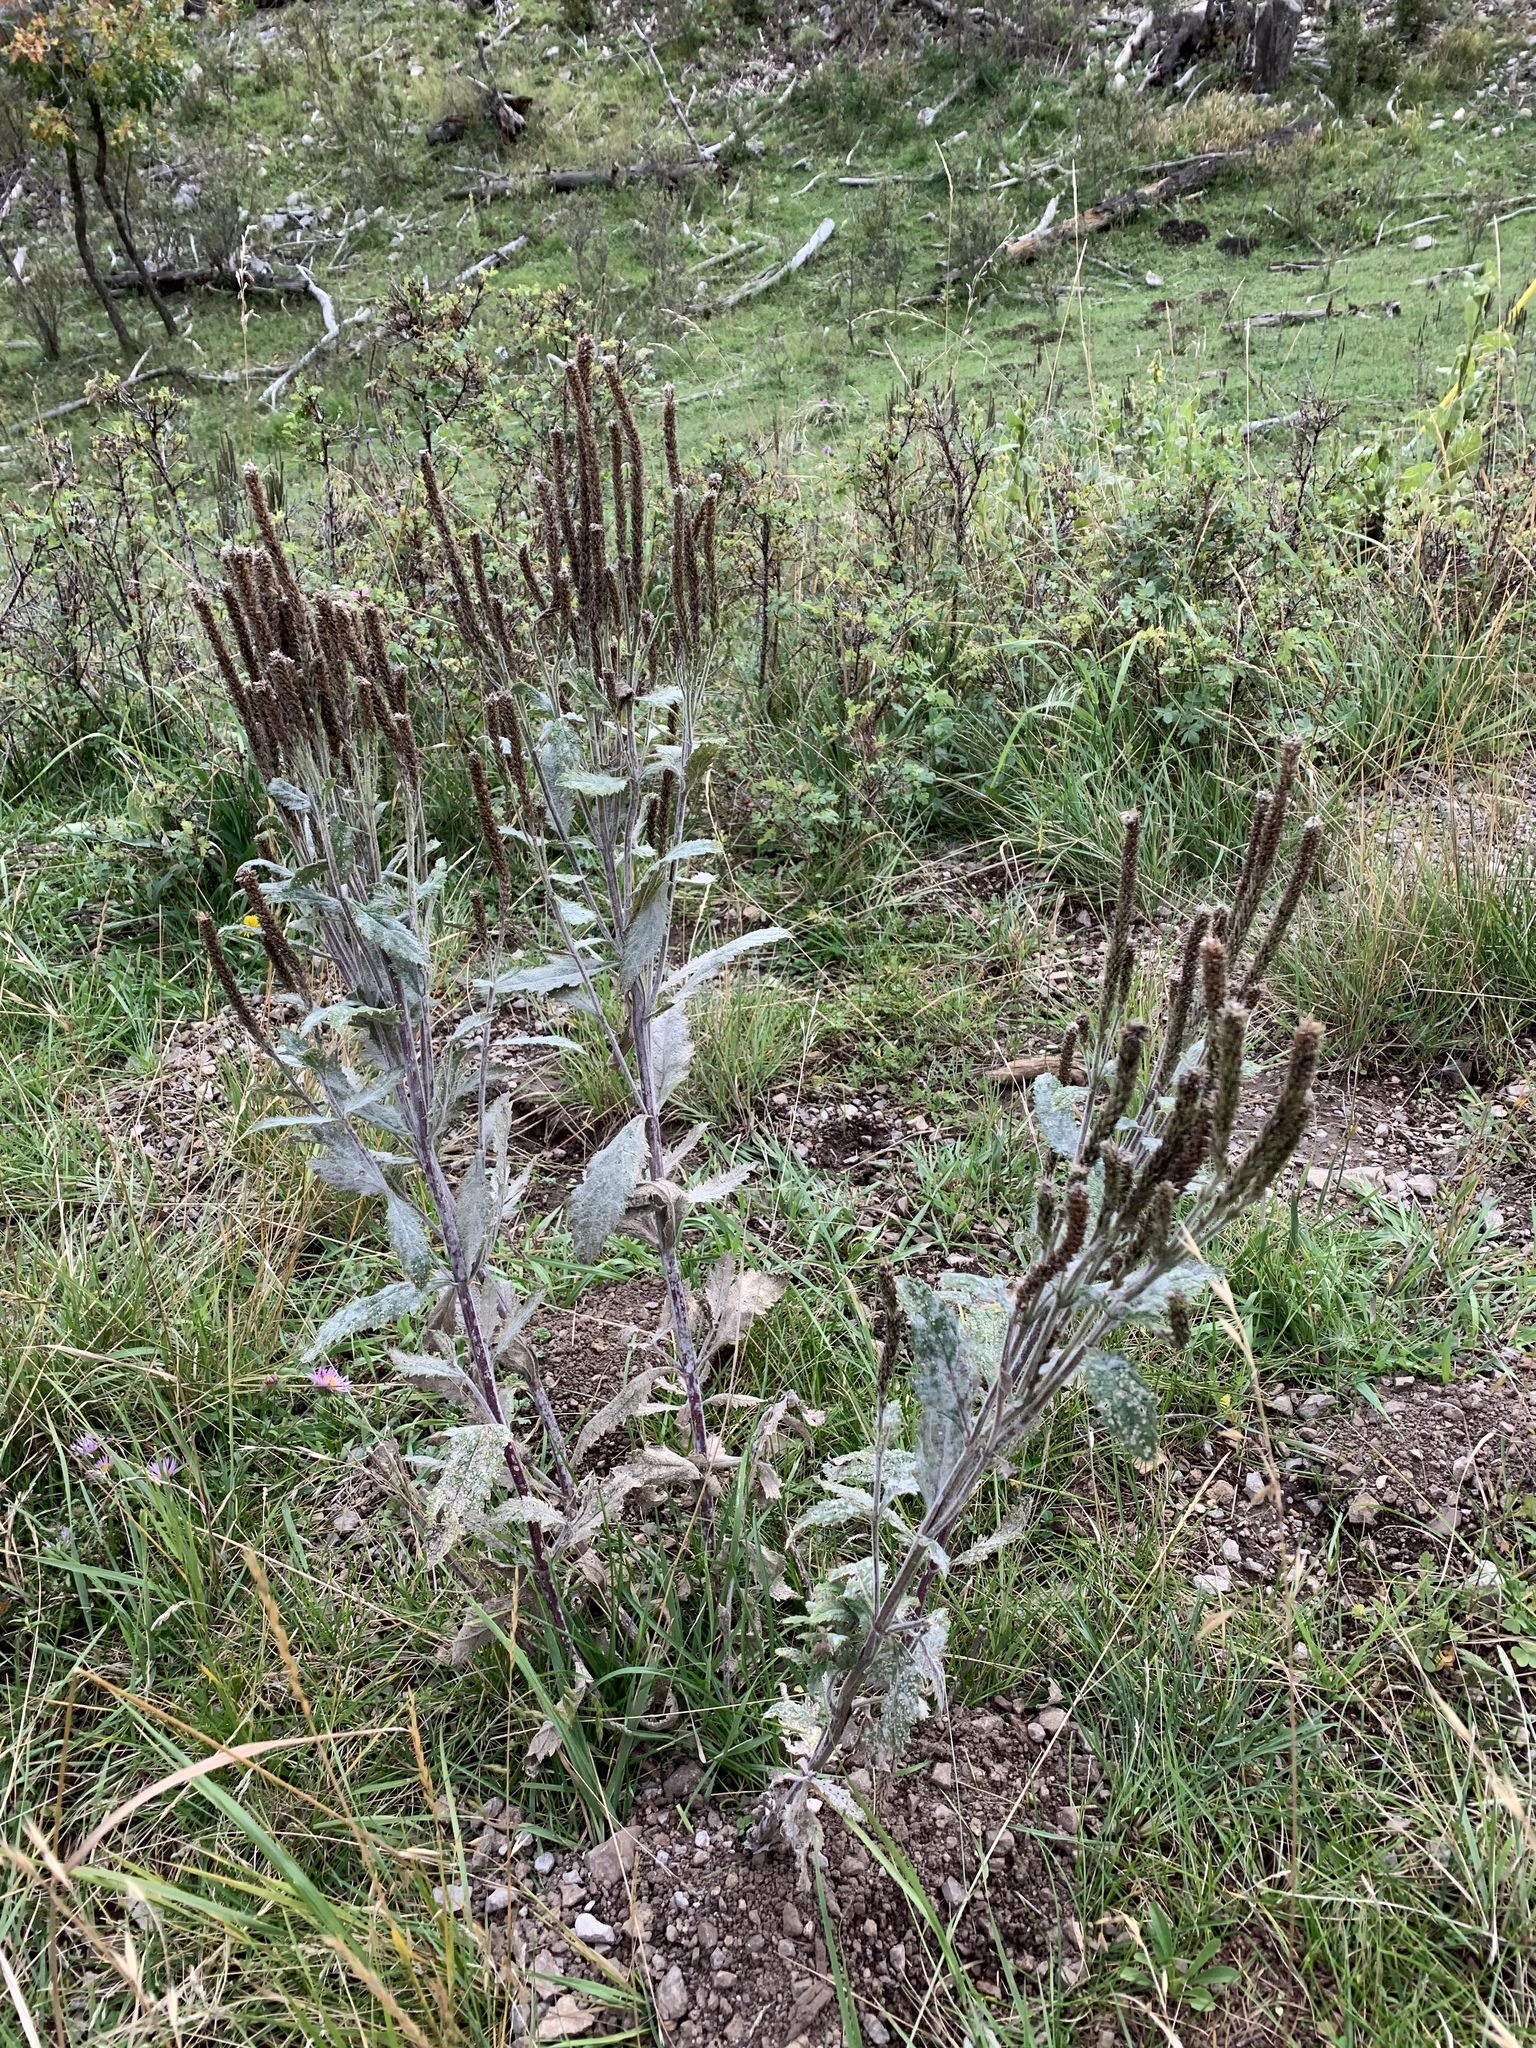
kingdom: Plantae
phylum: Tracheophyta
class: Magnoliopsida
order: Lamiales
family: Verbenaceae
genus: Verbena
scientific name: Verbena macdougalii
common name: New mexico vervain
